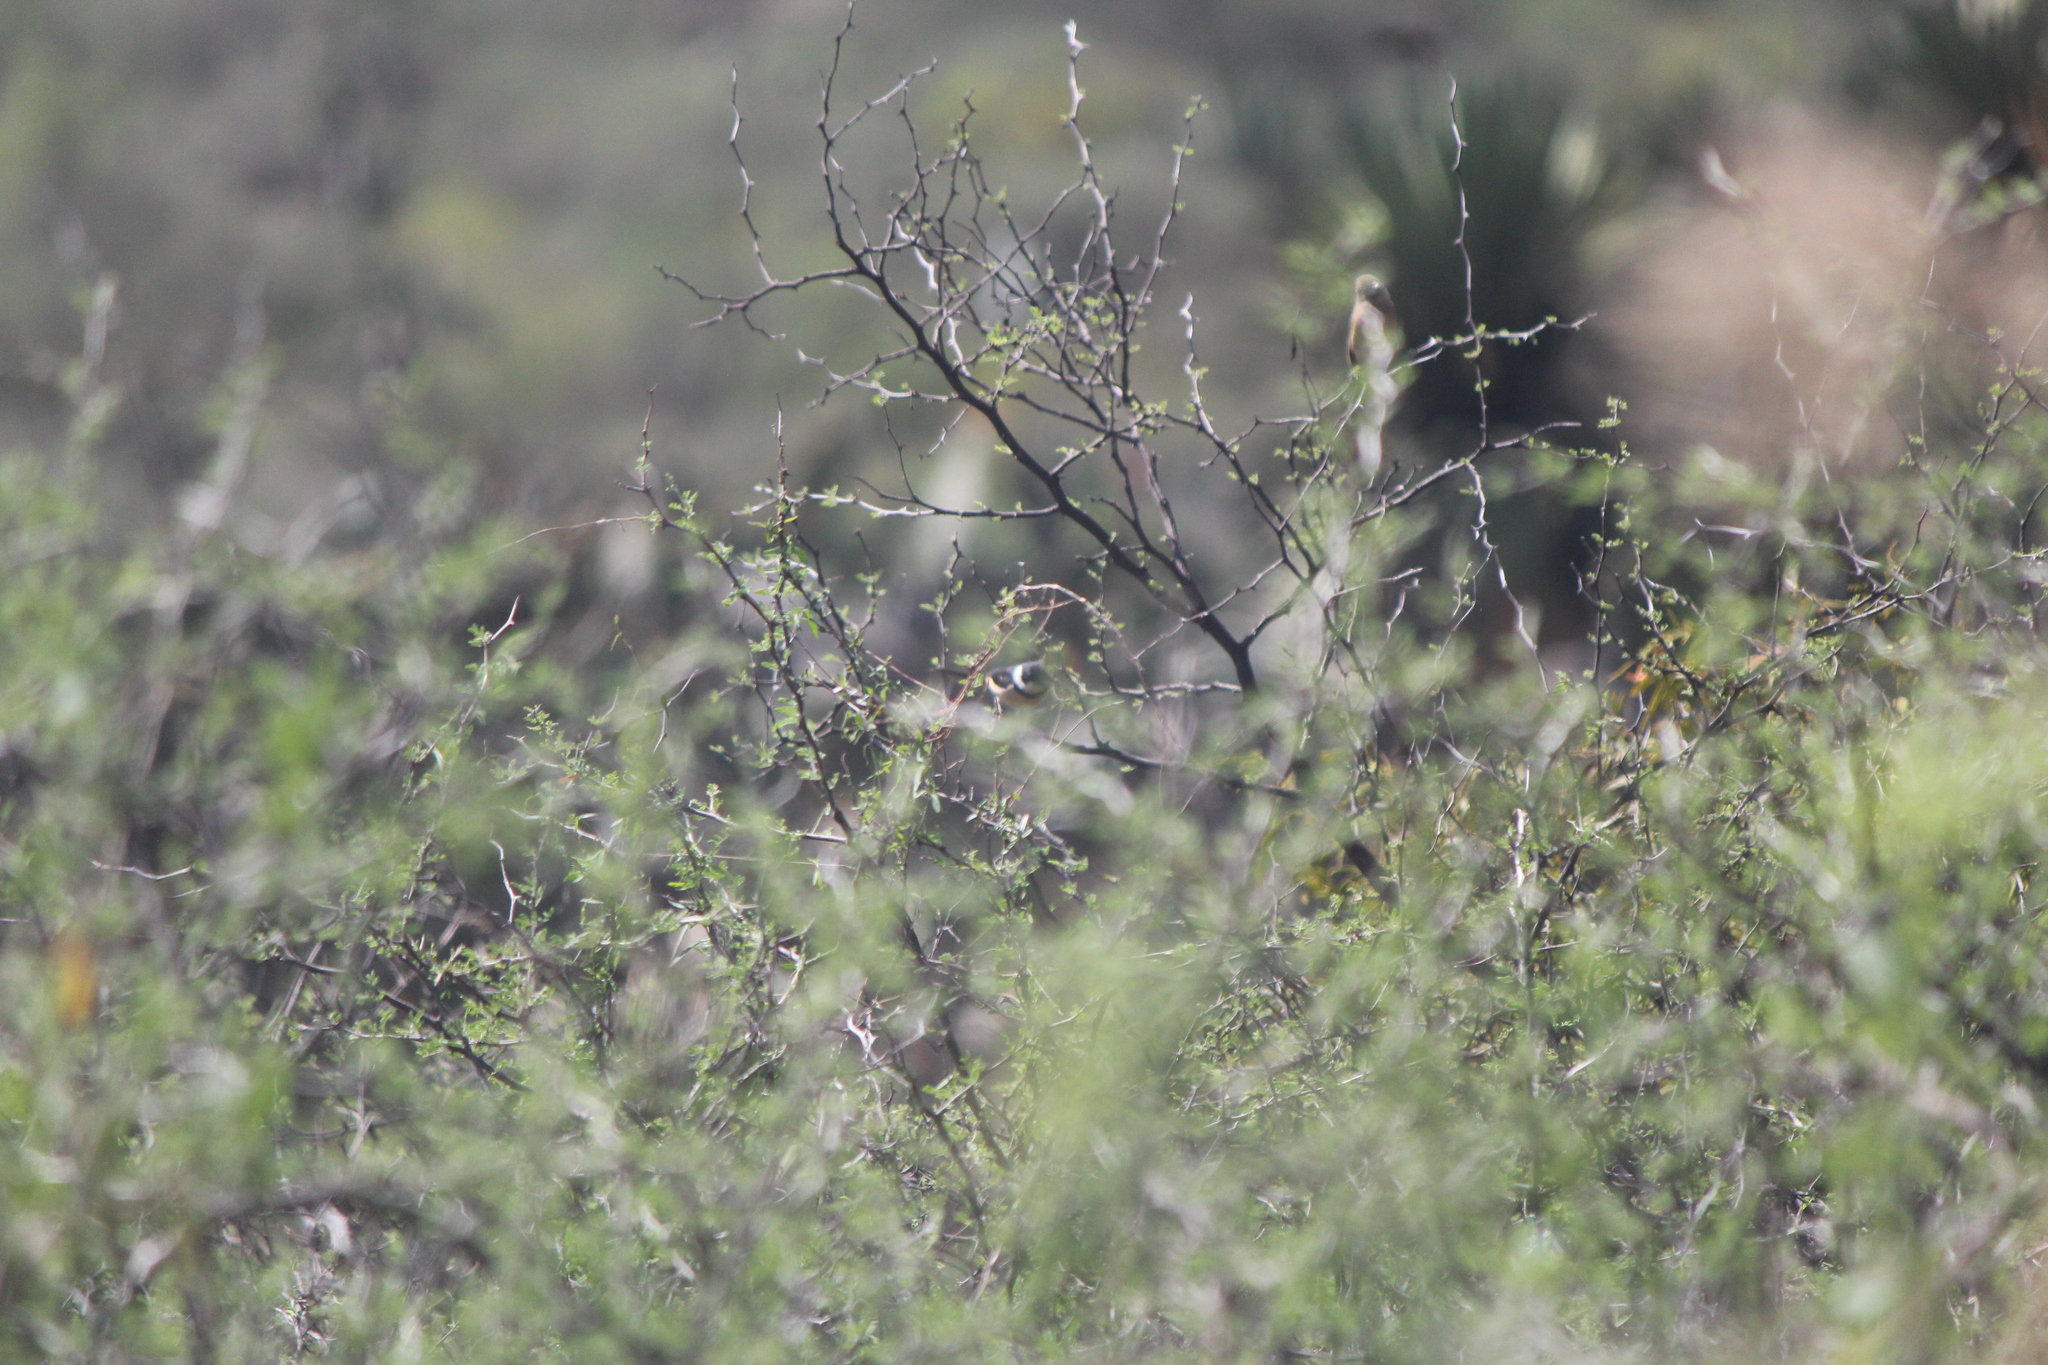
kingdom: Animalia
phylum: Chordata
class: Aves
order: Passeriformes
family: Thraupidae
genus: Sporophila
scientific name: Sporophila torqueola
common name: White-collared seedeater
